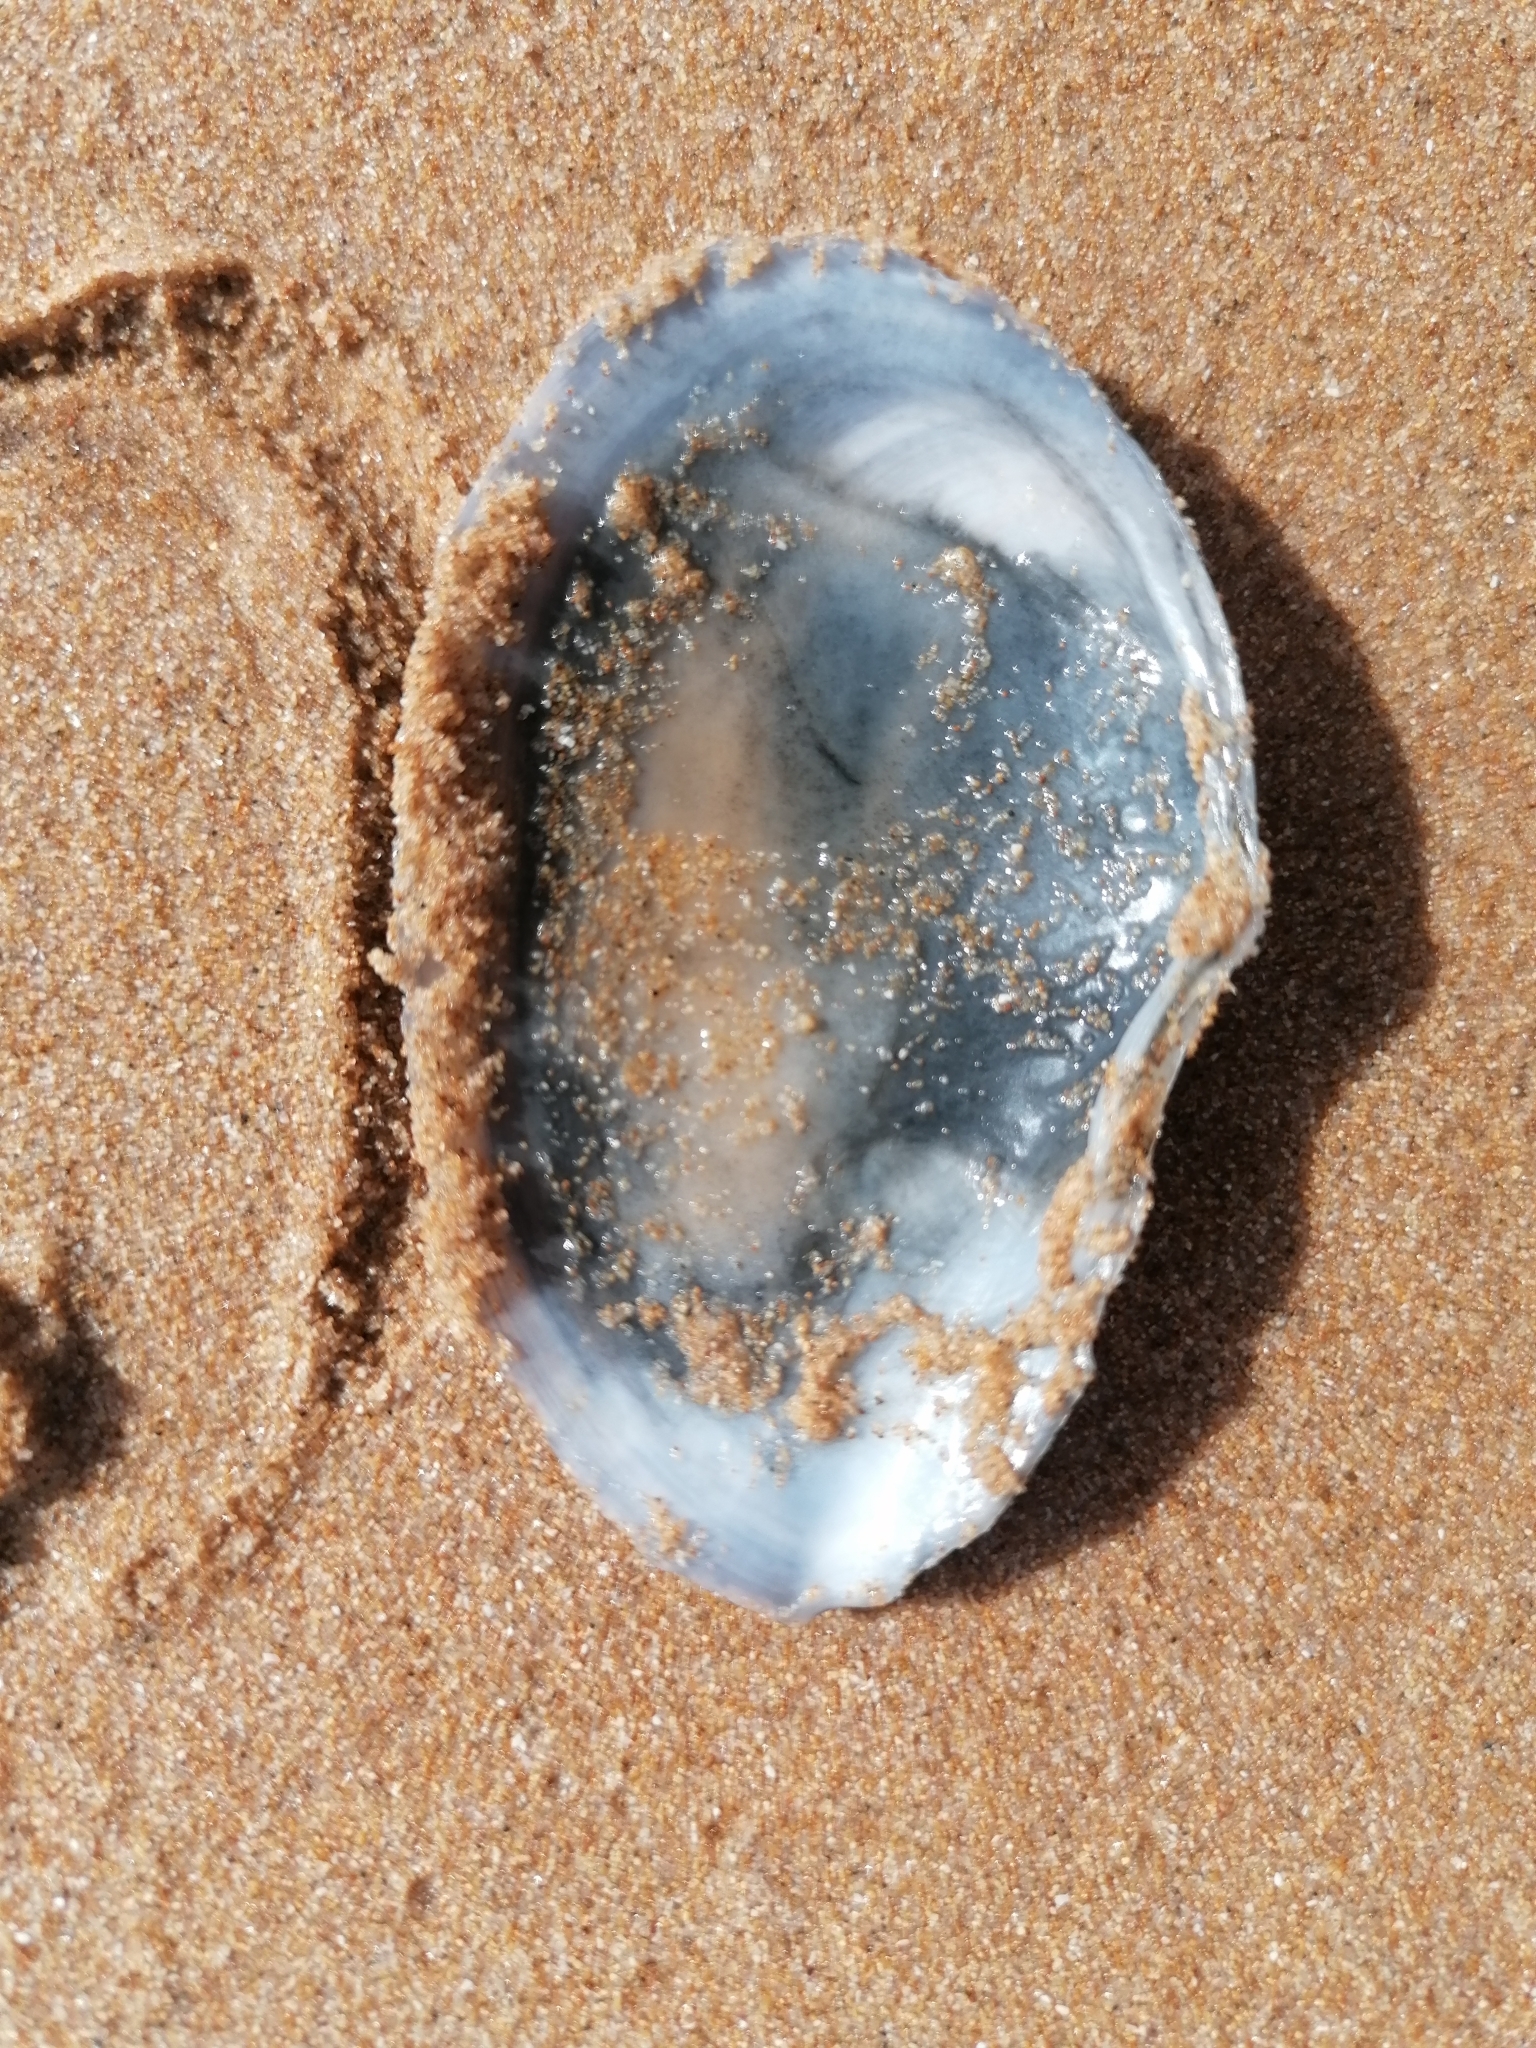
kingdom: Animalia
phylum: Mollusca
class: Bivalvia
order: Cardiida
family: Tellinidae
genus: Peronaea
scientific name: Peronaea planata
